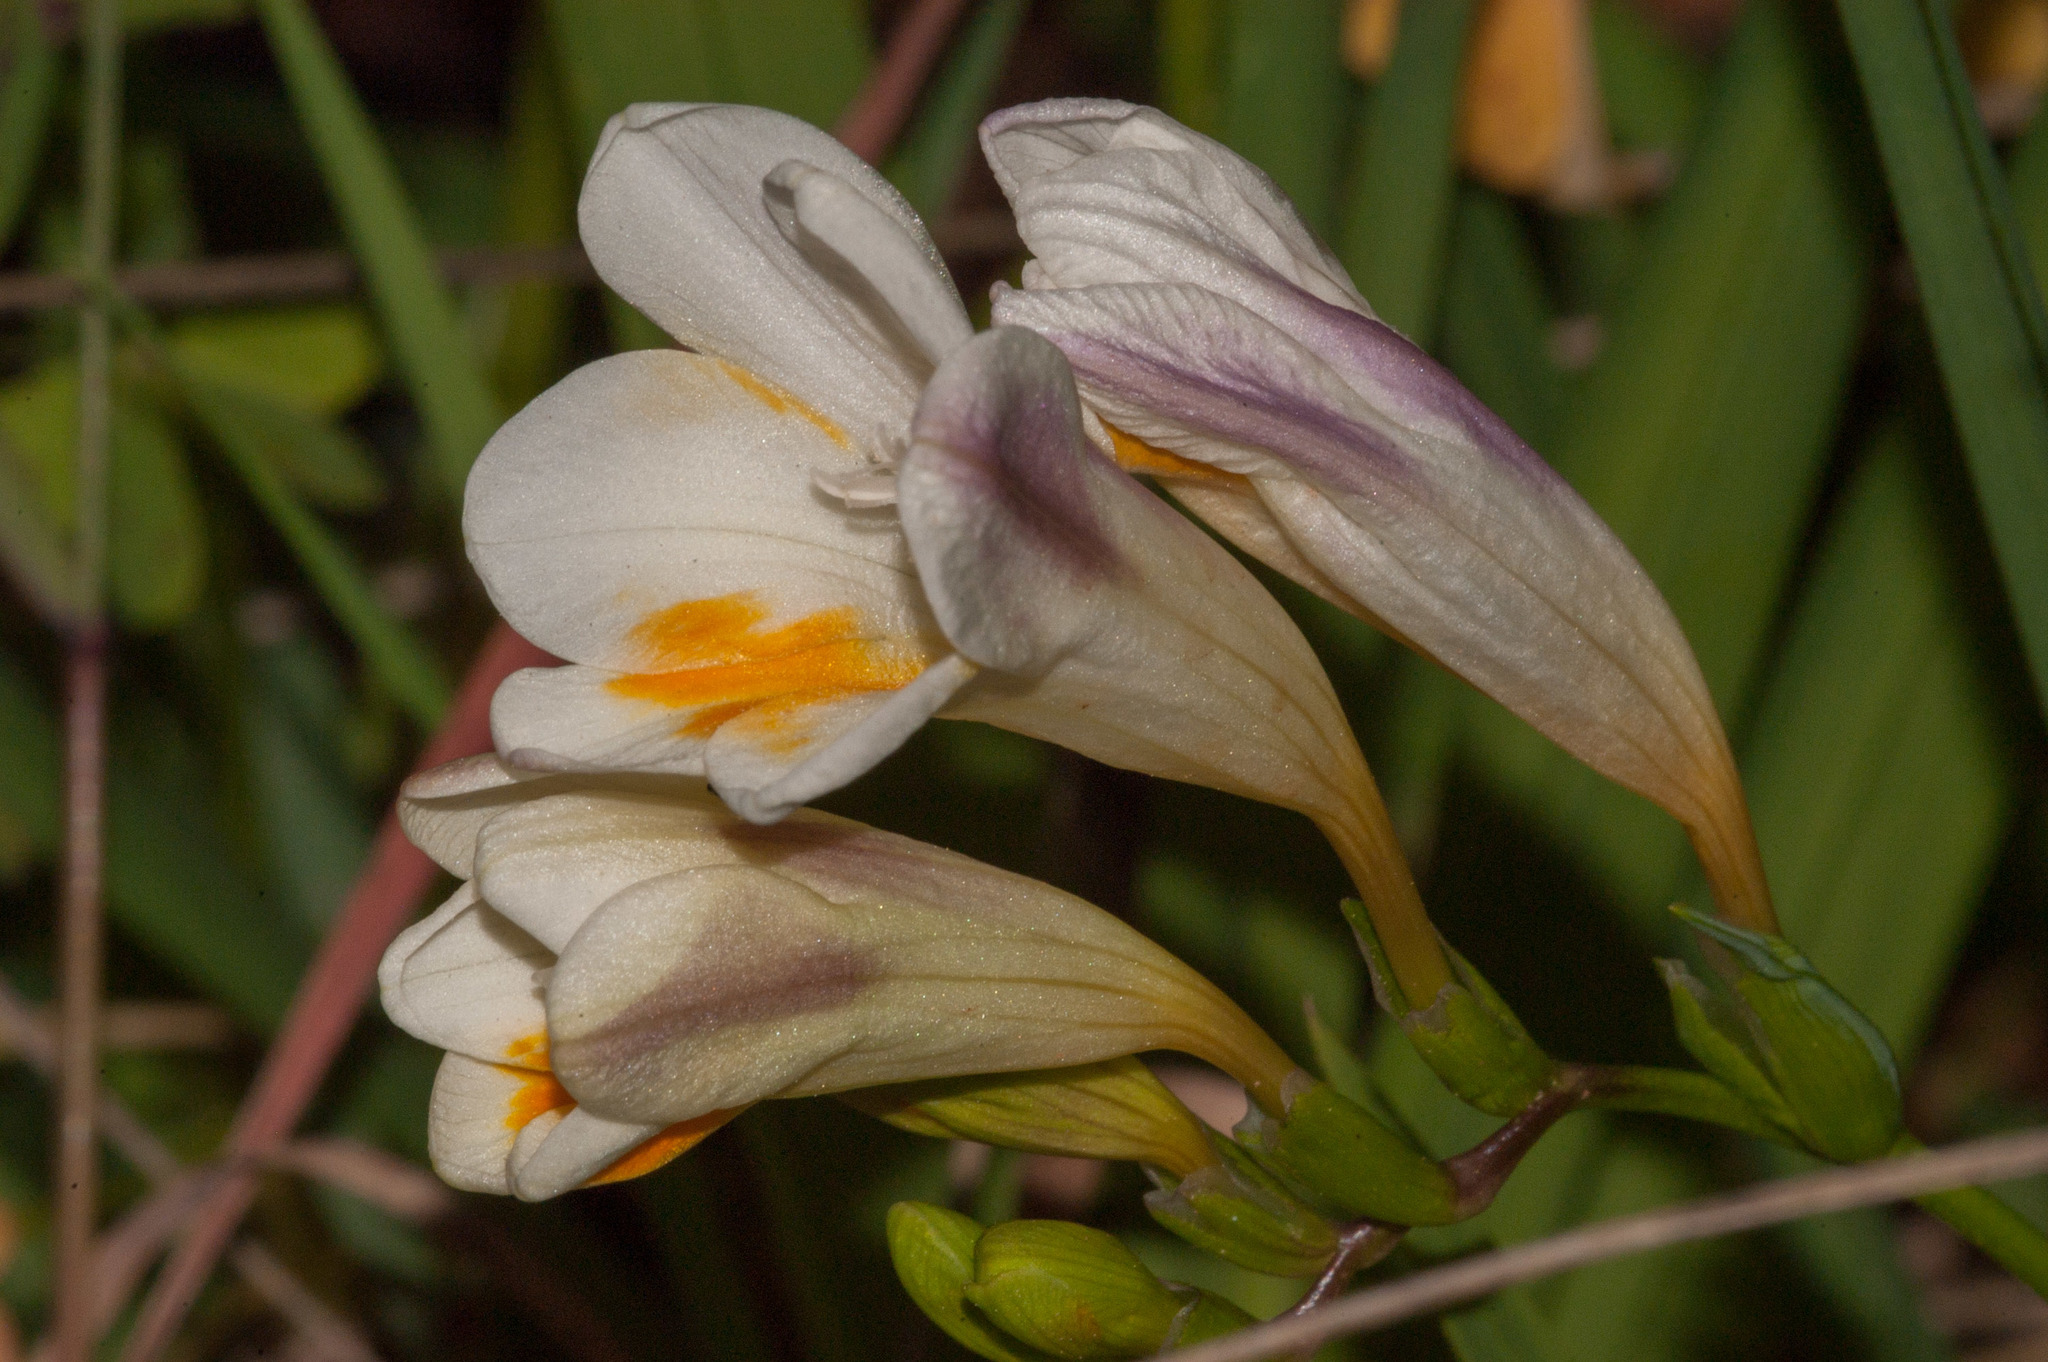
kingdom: Plantae
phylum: Tracheophyta
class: Liliopsida
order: Asparagales
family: Iridaceae
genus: Freesia
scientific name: Freesia
